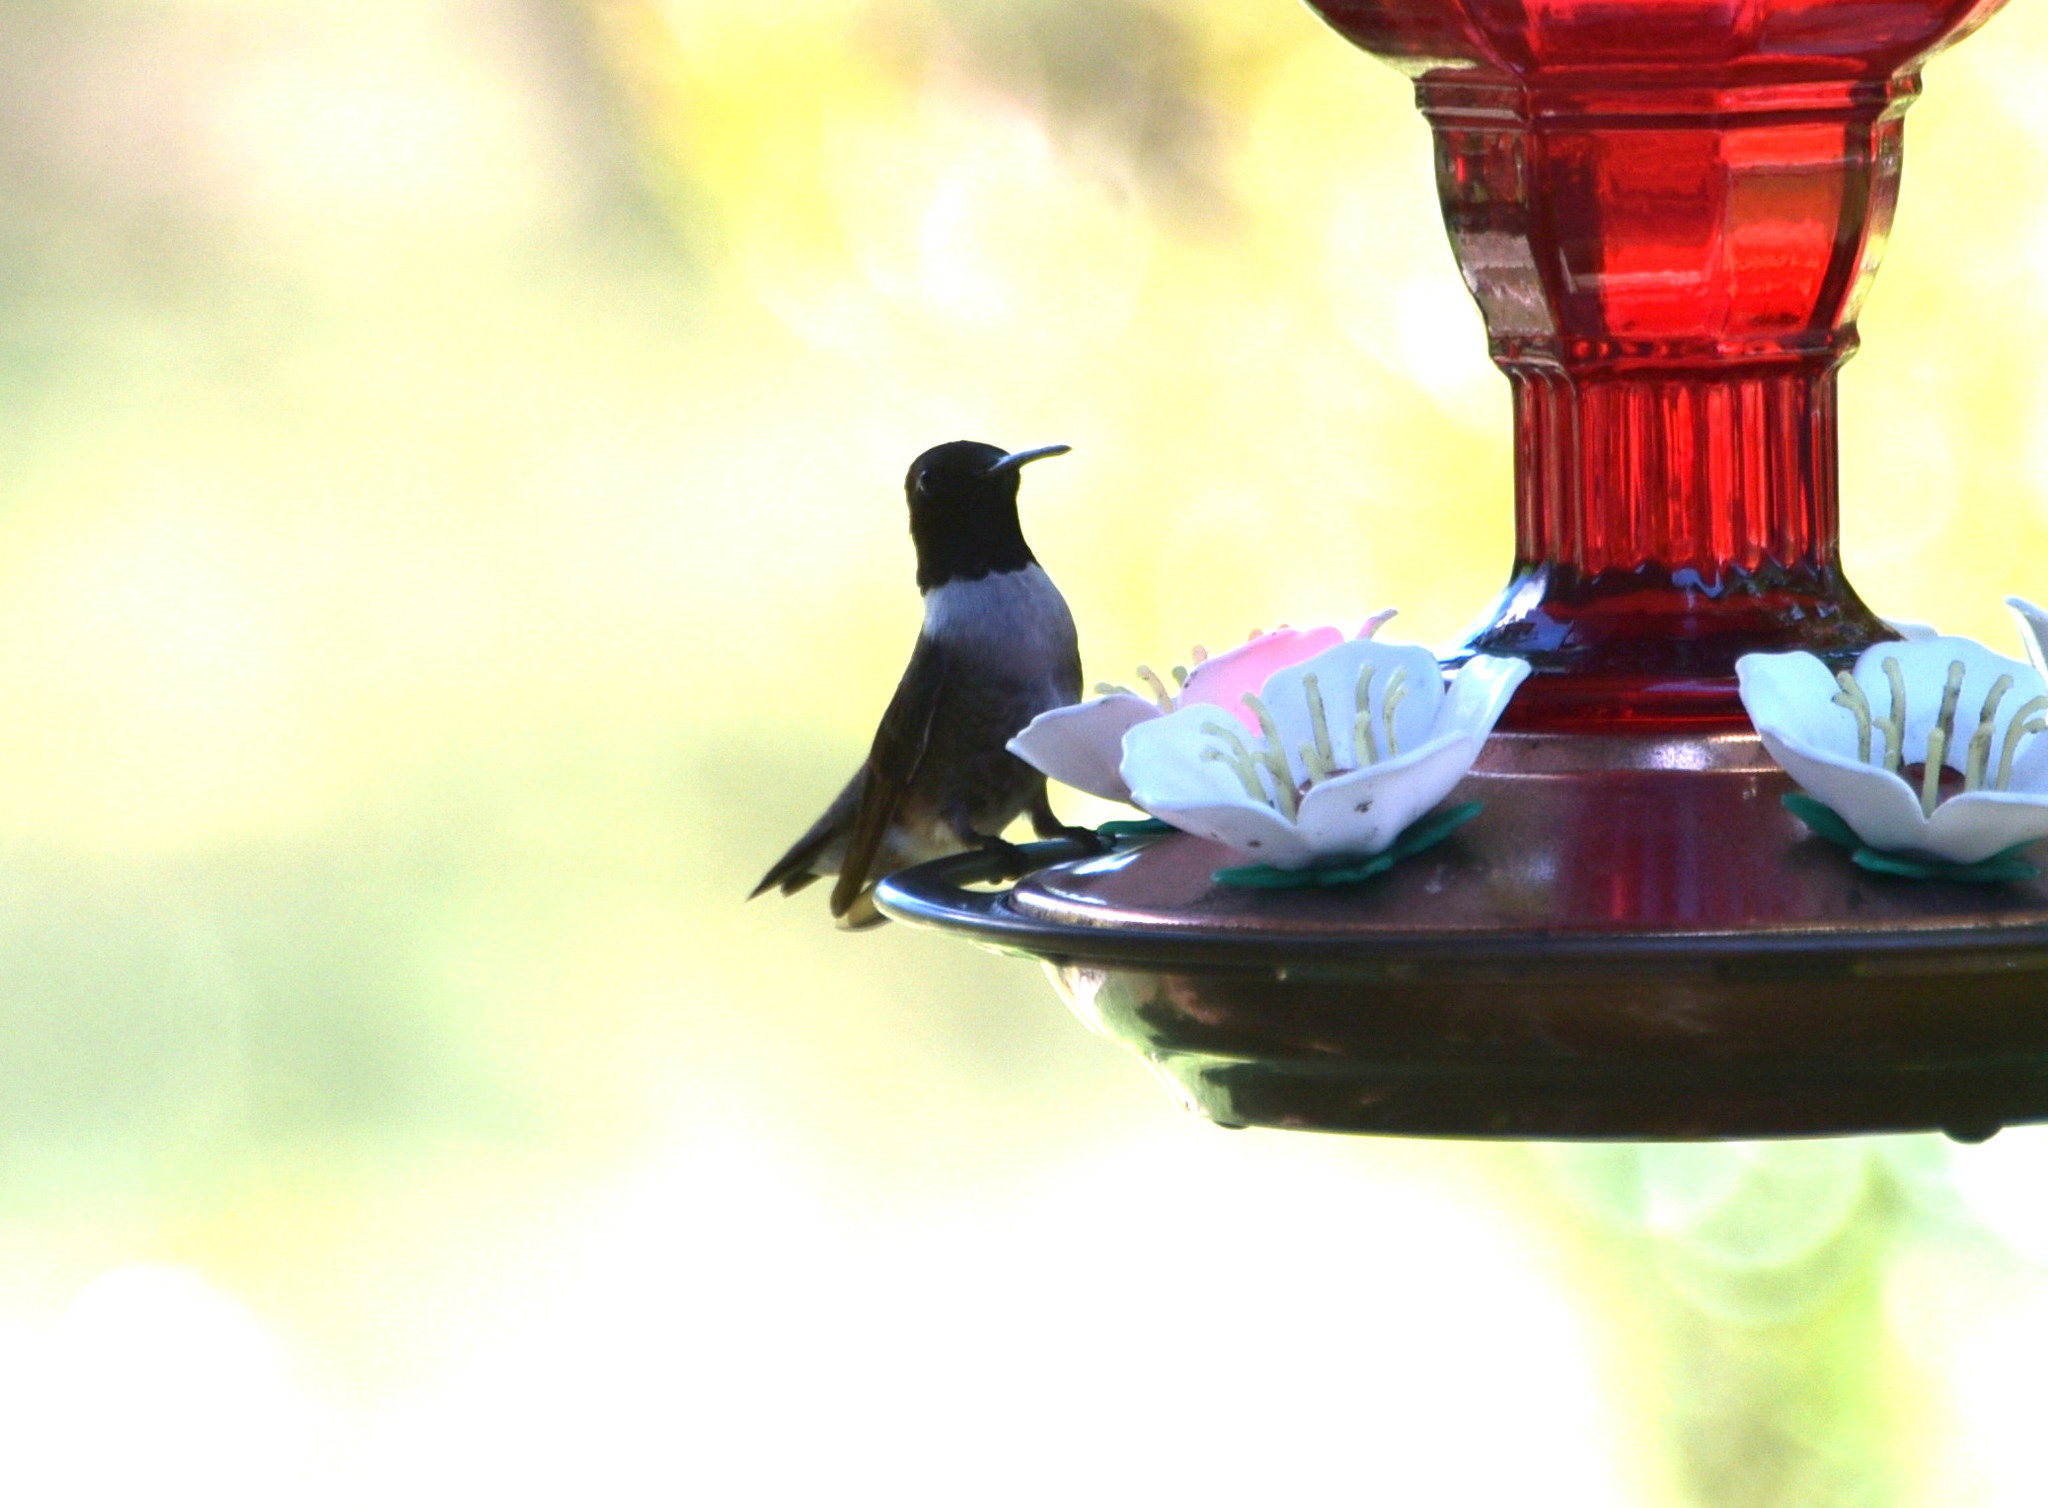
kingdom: Animalia
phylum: Chordata
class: Aves
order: Apodiformes
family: Trochilidae
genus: Archilochus
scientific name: Archilochus alexandri
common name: Black-chinned hummingbird
